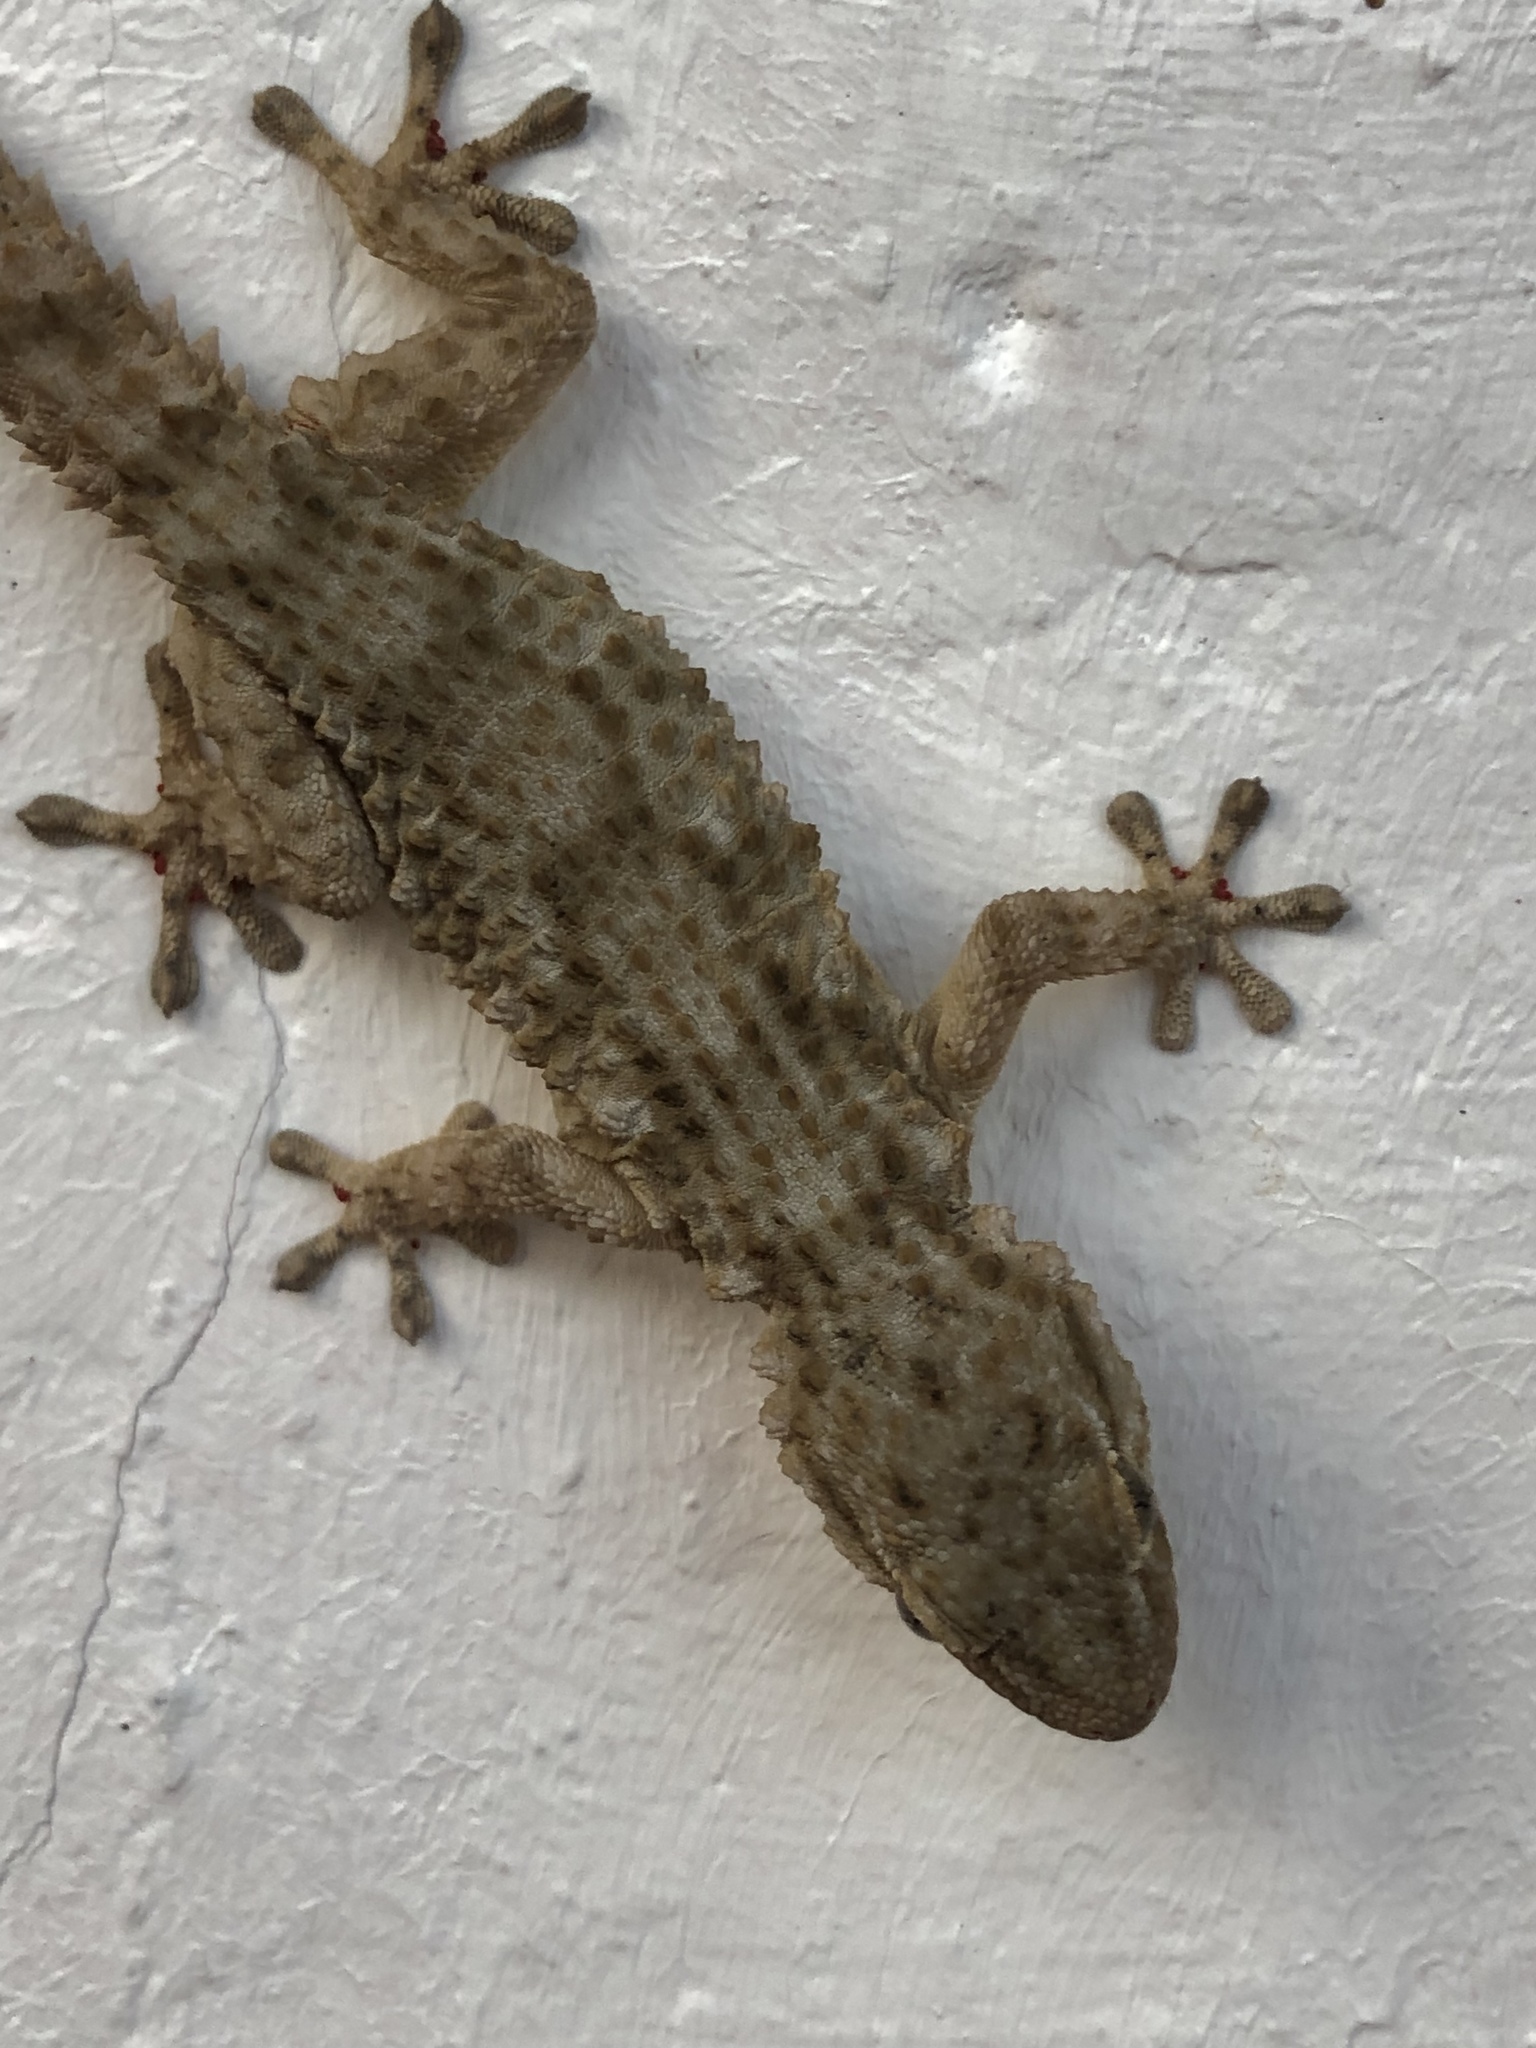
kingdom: Animalia
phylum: Chordata
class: Squamata
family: Phyllodactylidae
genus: Tarentola
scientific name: Tarentola mauritanica
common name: Moorish gecko
